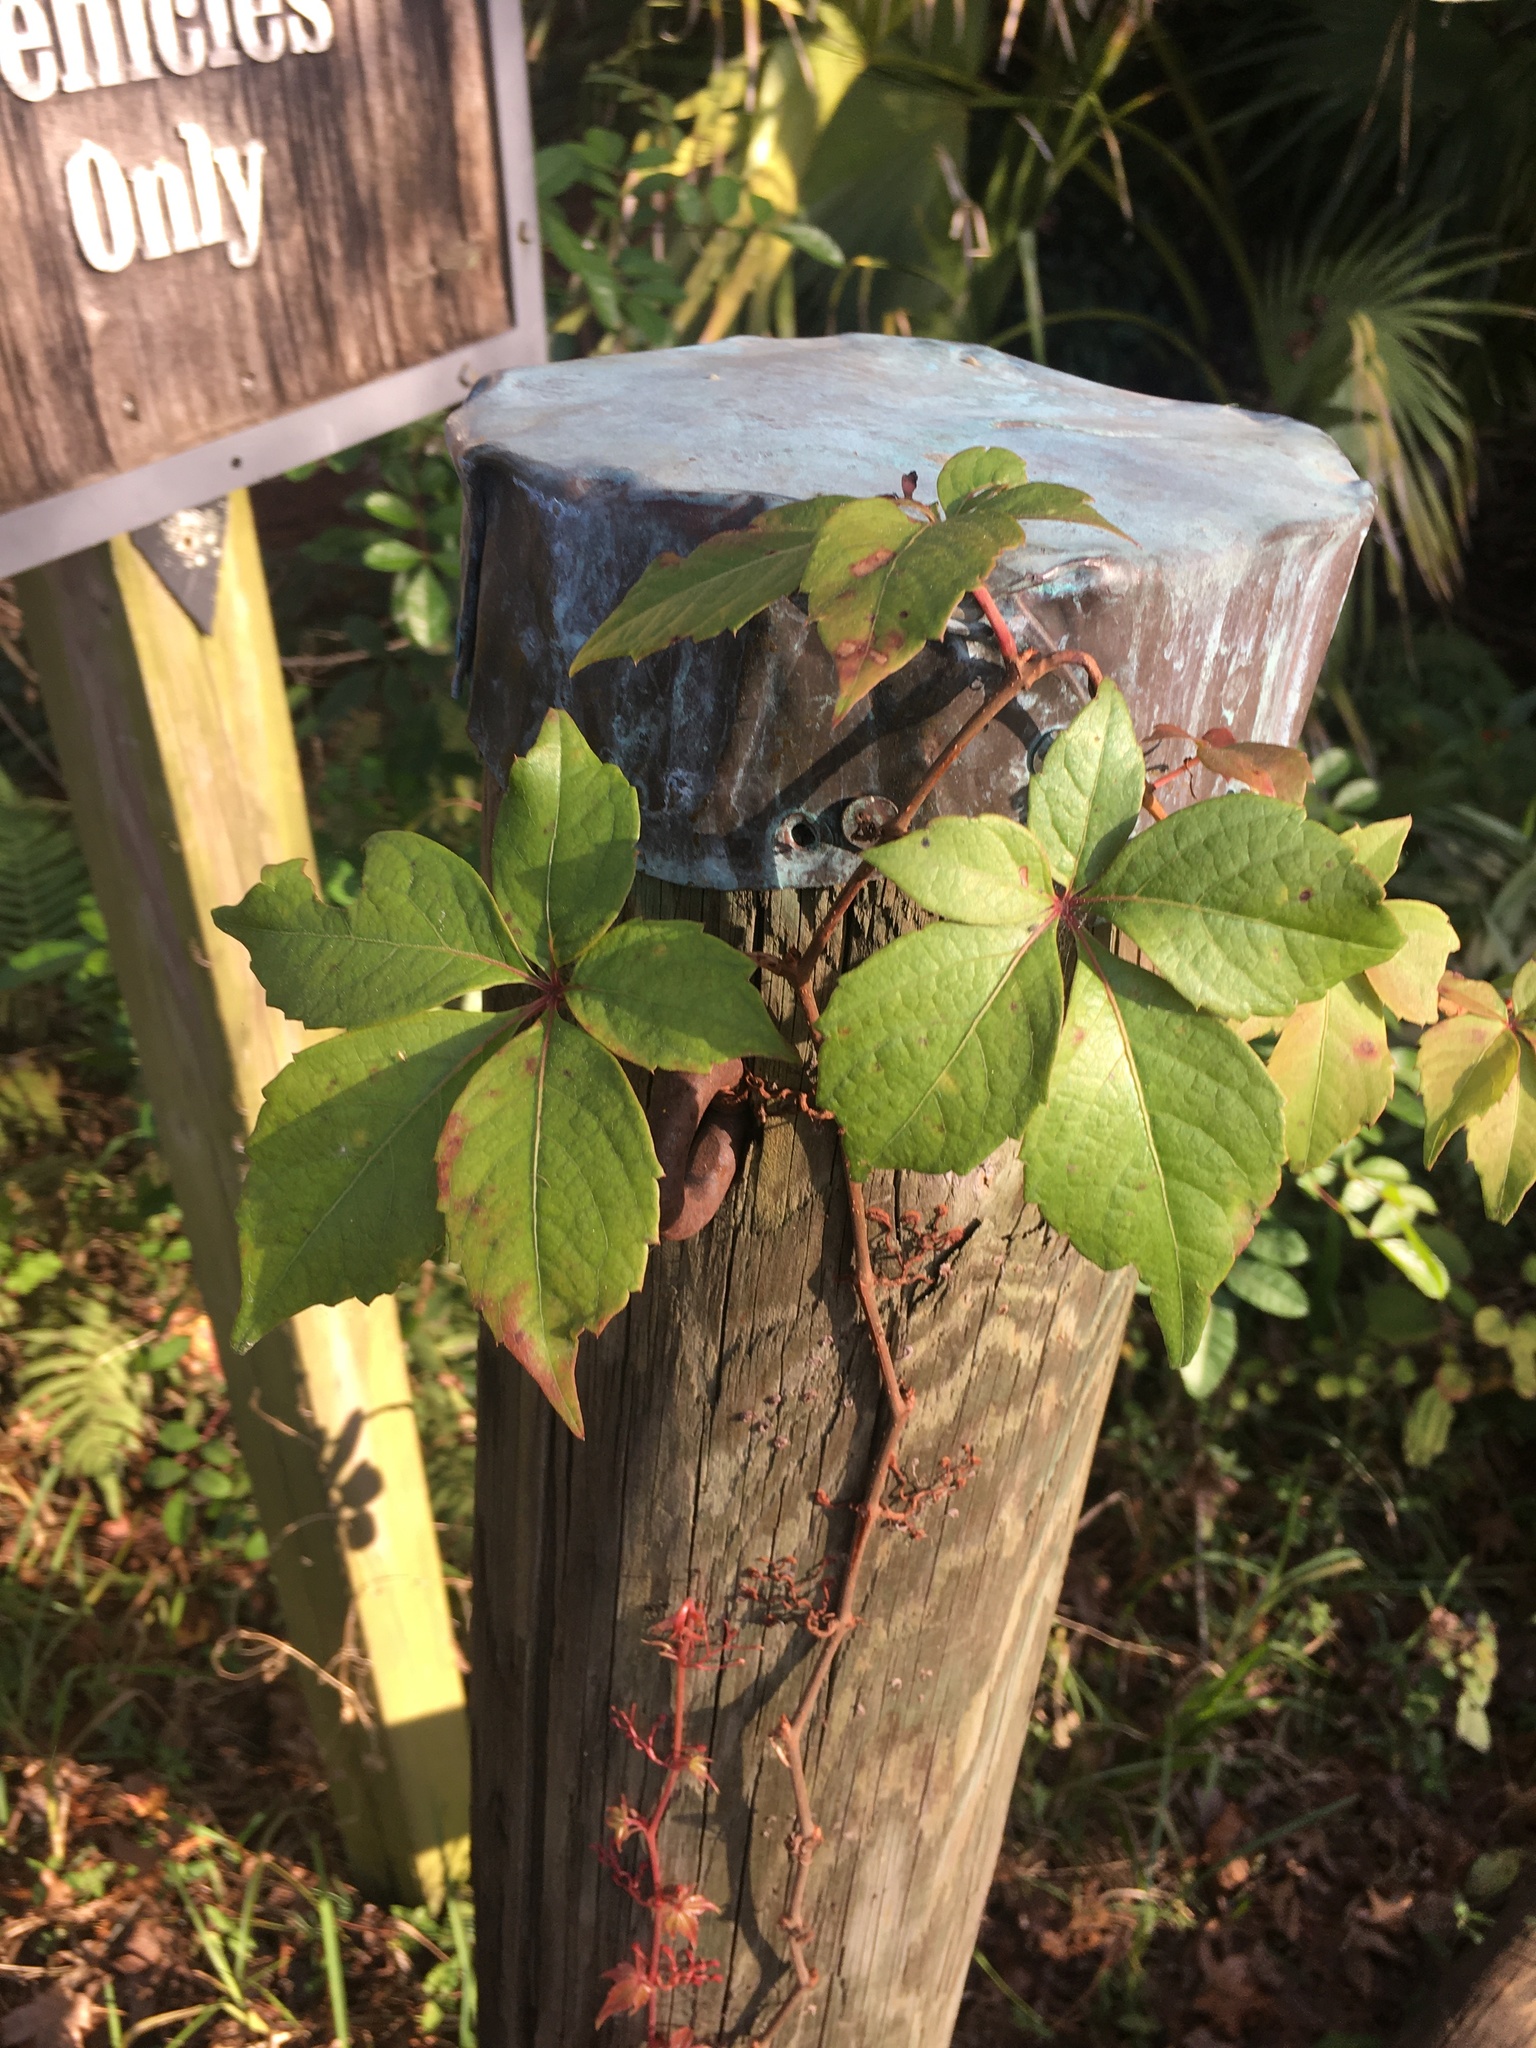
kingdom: Plantae
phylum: Tracheophyta
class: Magnoliopsida
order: Vitales
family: Vitaceae
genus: Parthenocissus
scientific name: Parthenocissus quinquefolia
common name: Virginia-creeper
